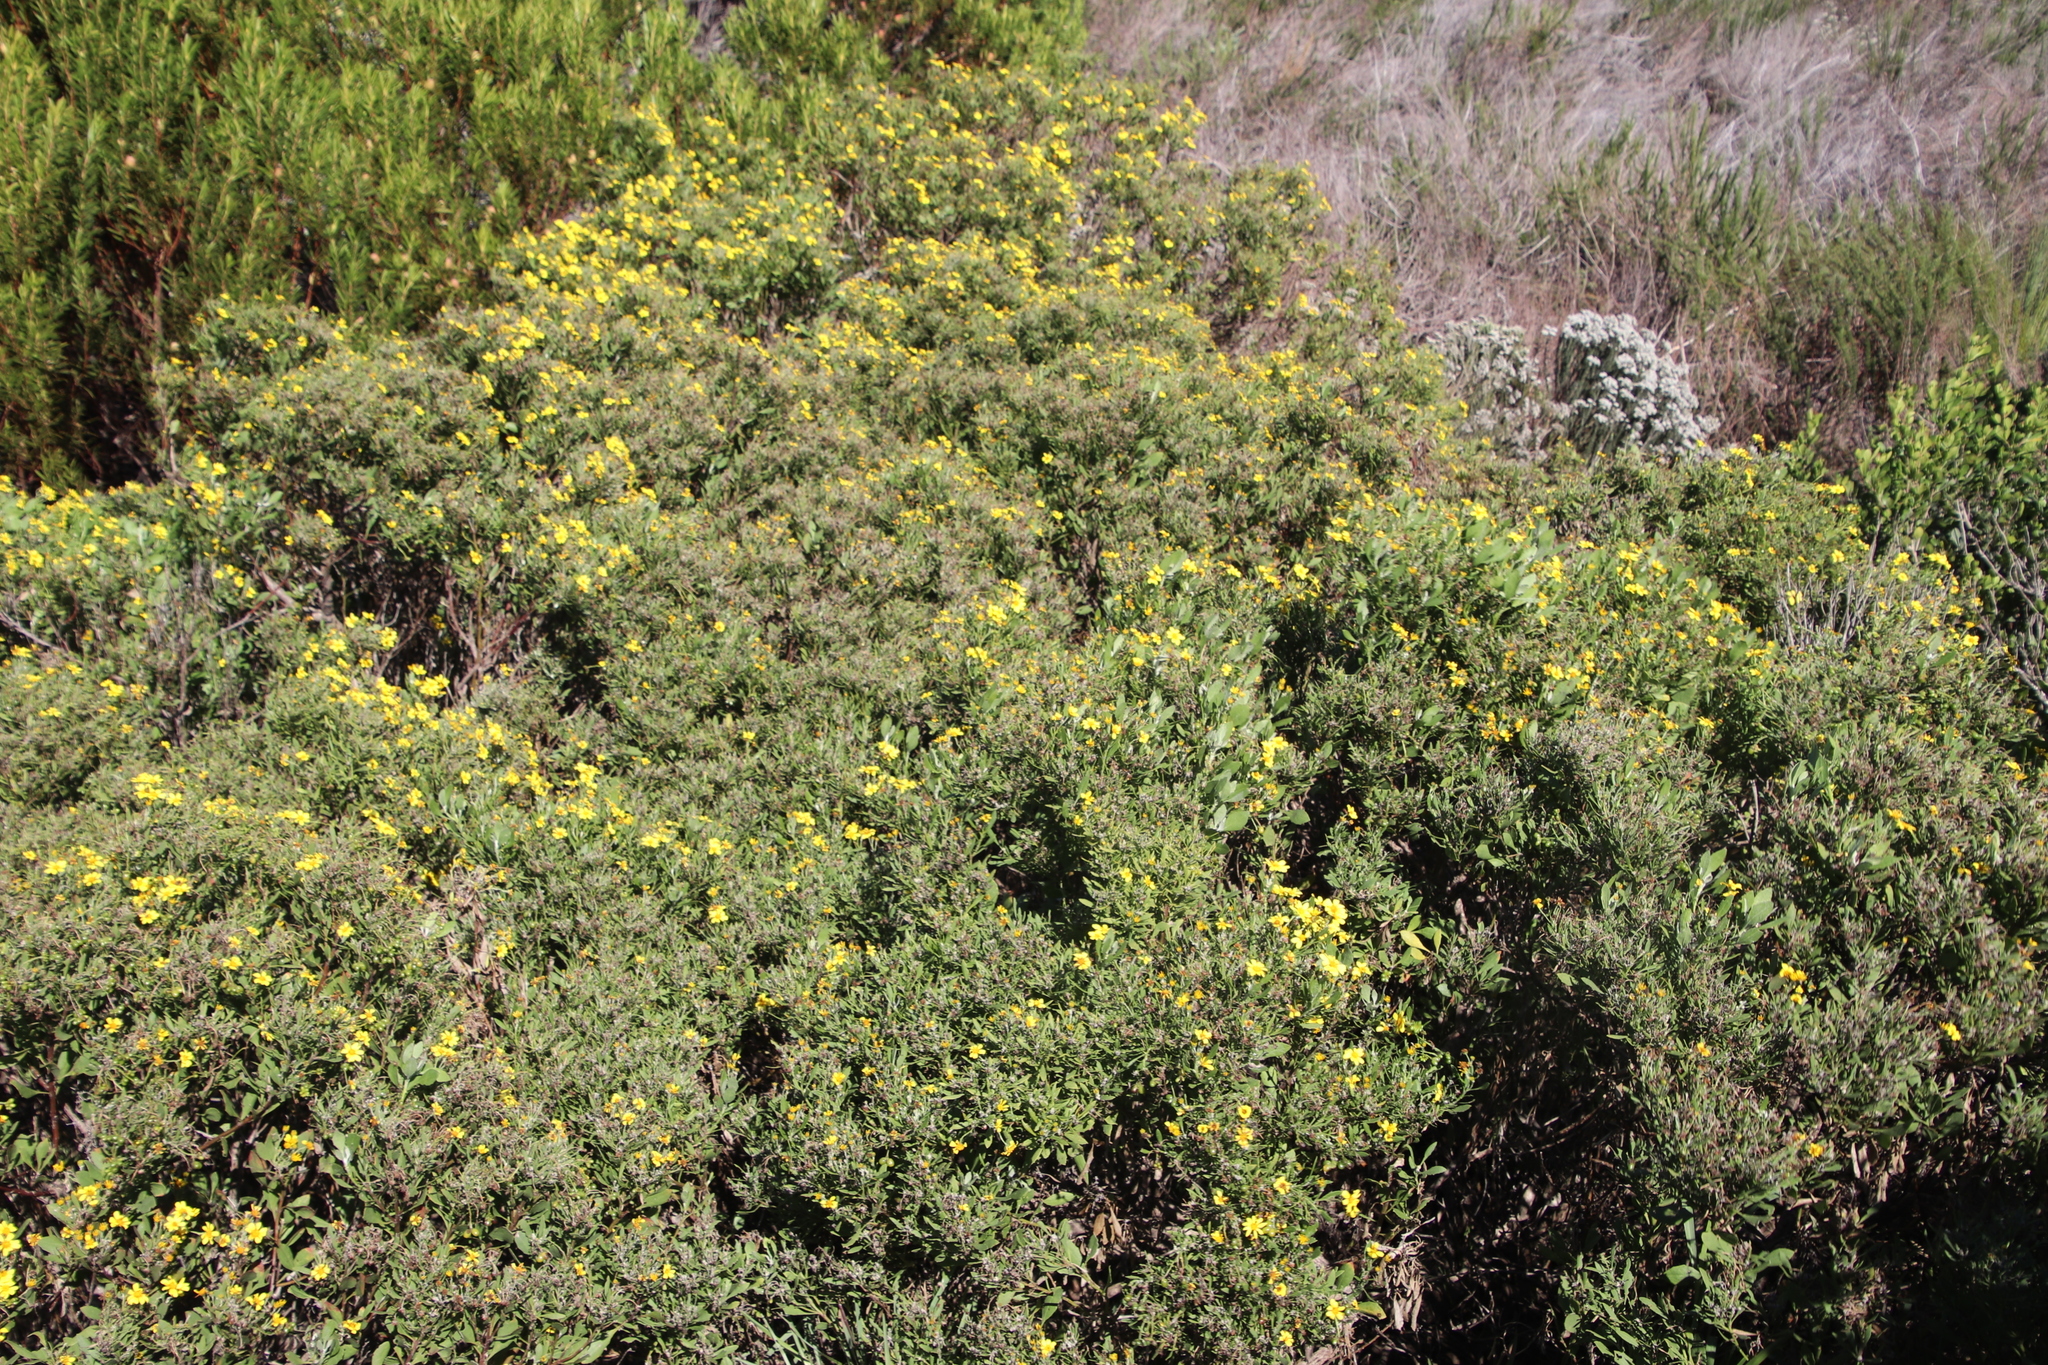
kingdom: Plantae
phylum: Tracheophyta
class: Magnoliopsida
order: Asterales
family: Asteraceae
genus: Osteospermum
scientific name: Osteospermum moniliferum
